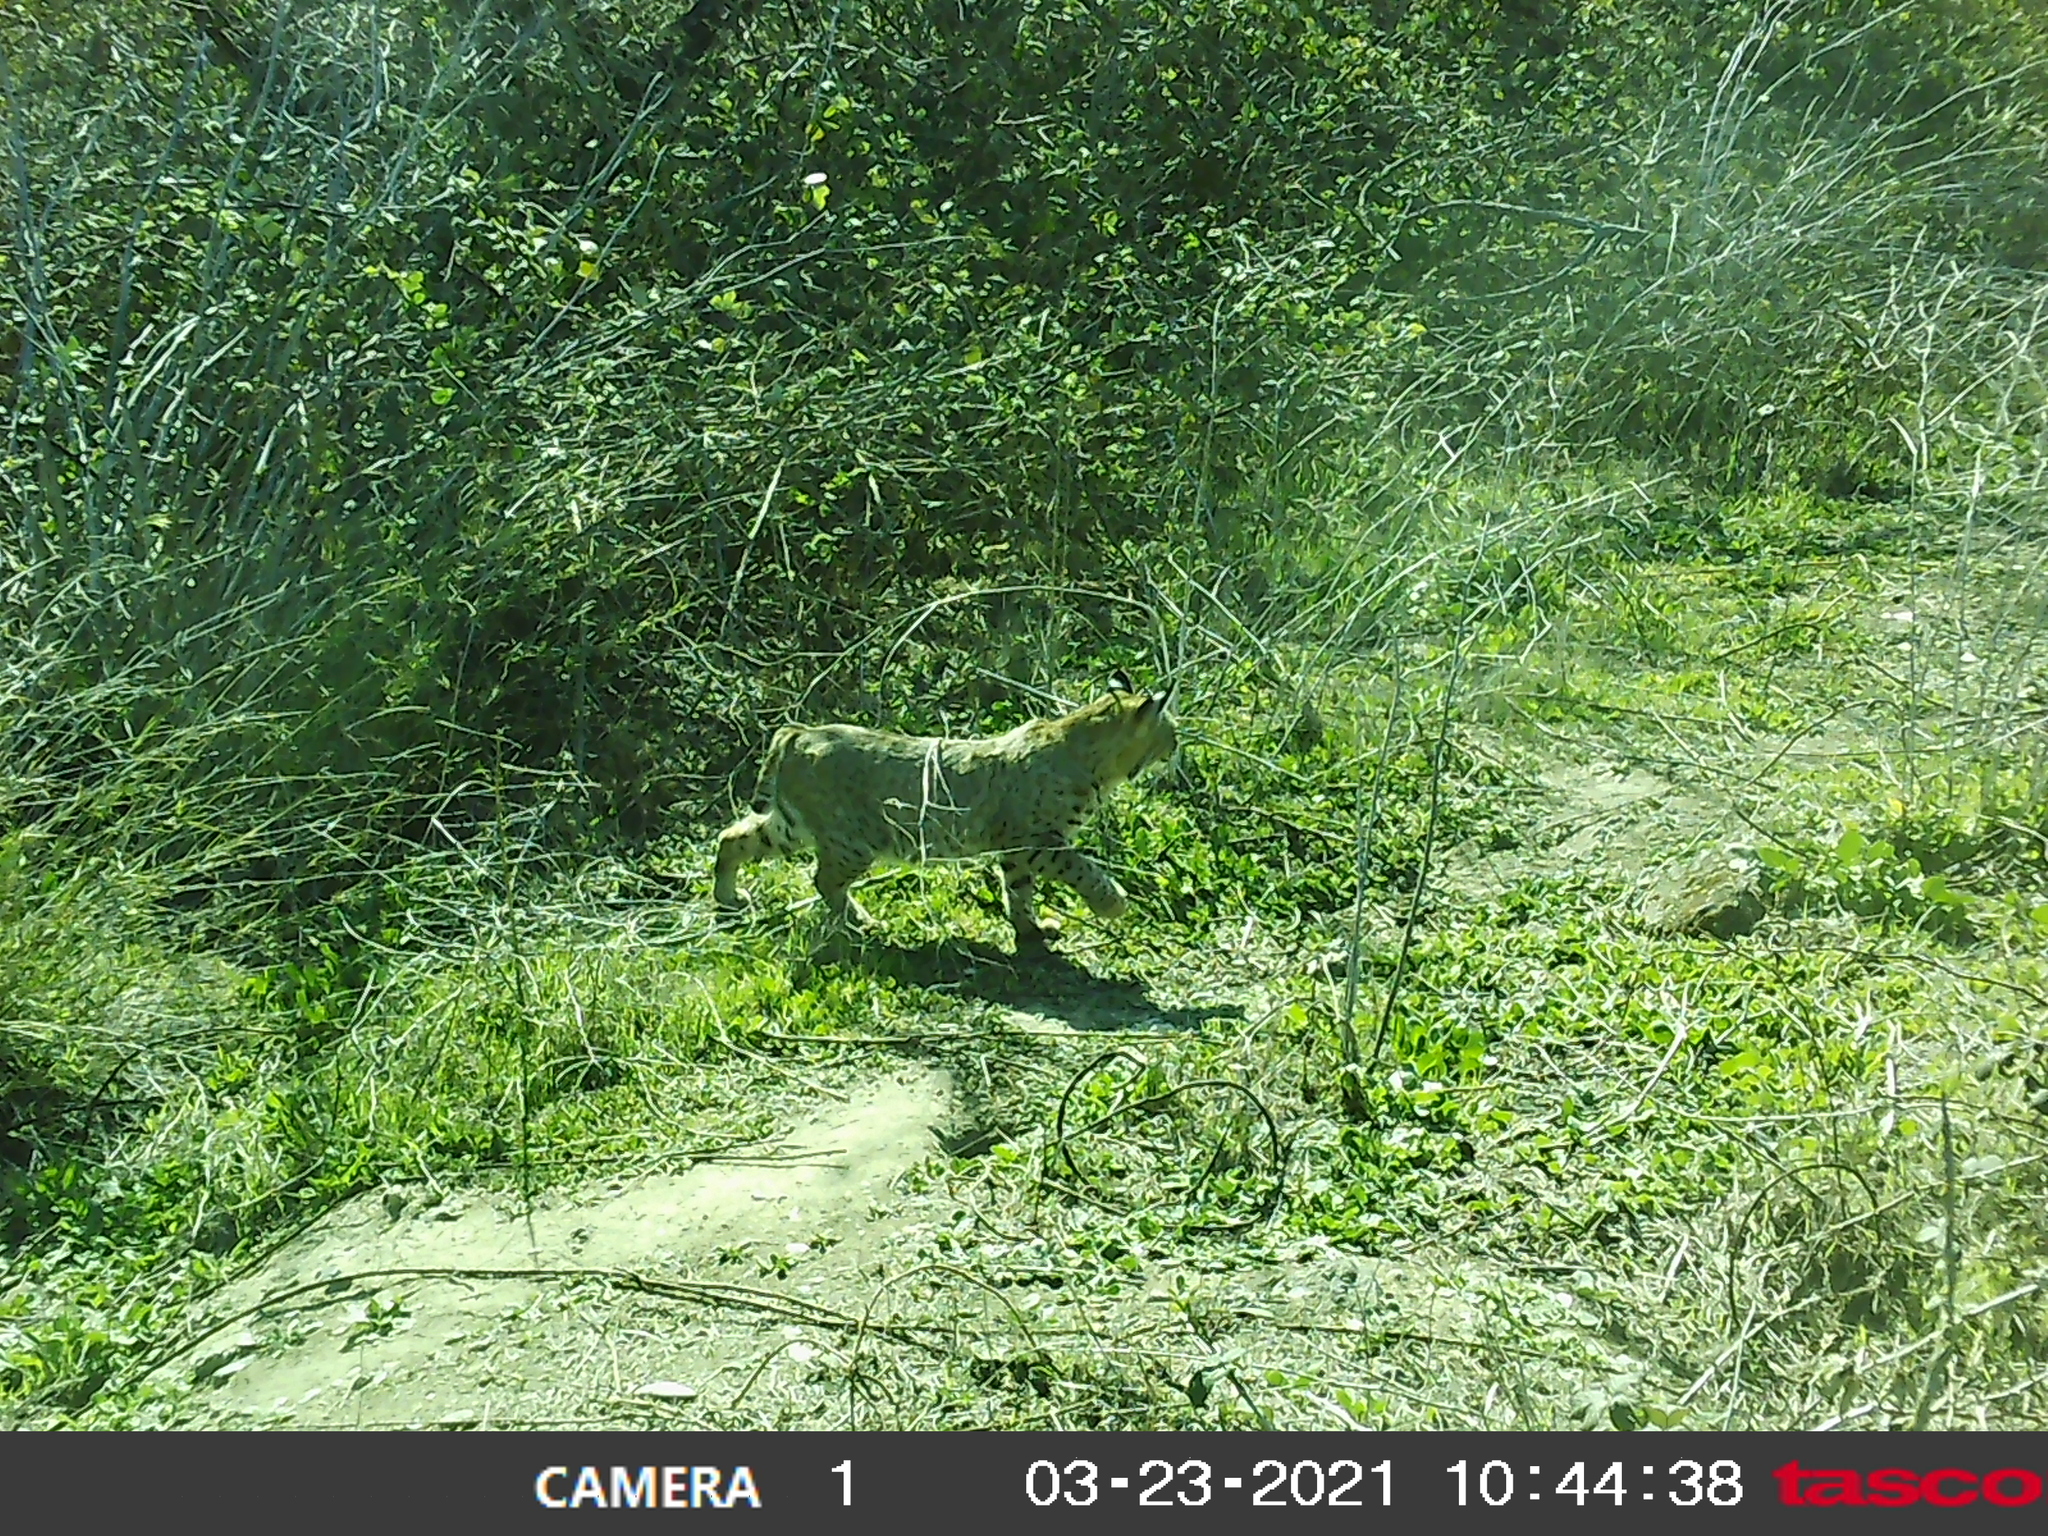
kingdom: Animalia
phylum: Chordata
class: Mammalia
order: Carnivora
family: Felidae
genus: Lynx
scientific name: Lynx rufus
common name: Bobcat
